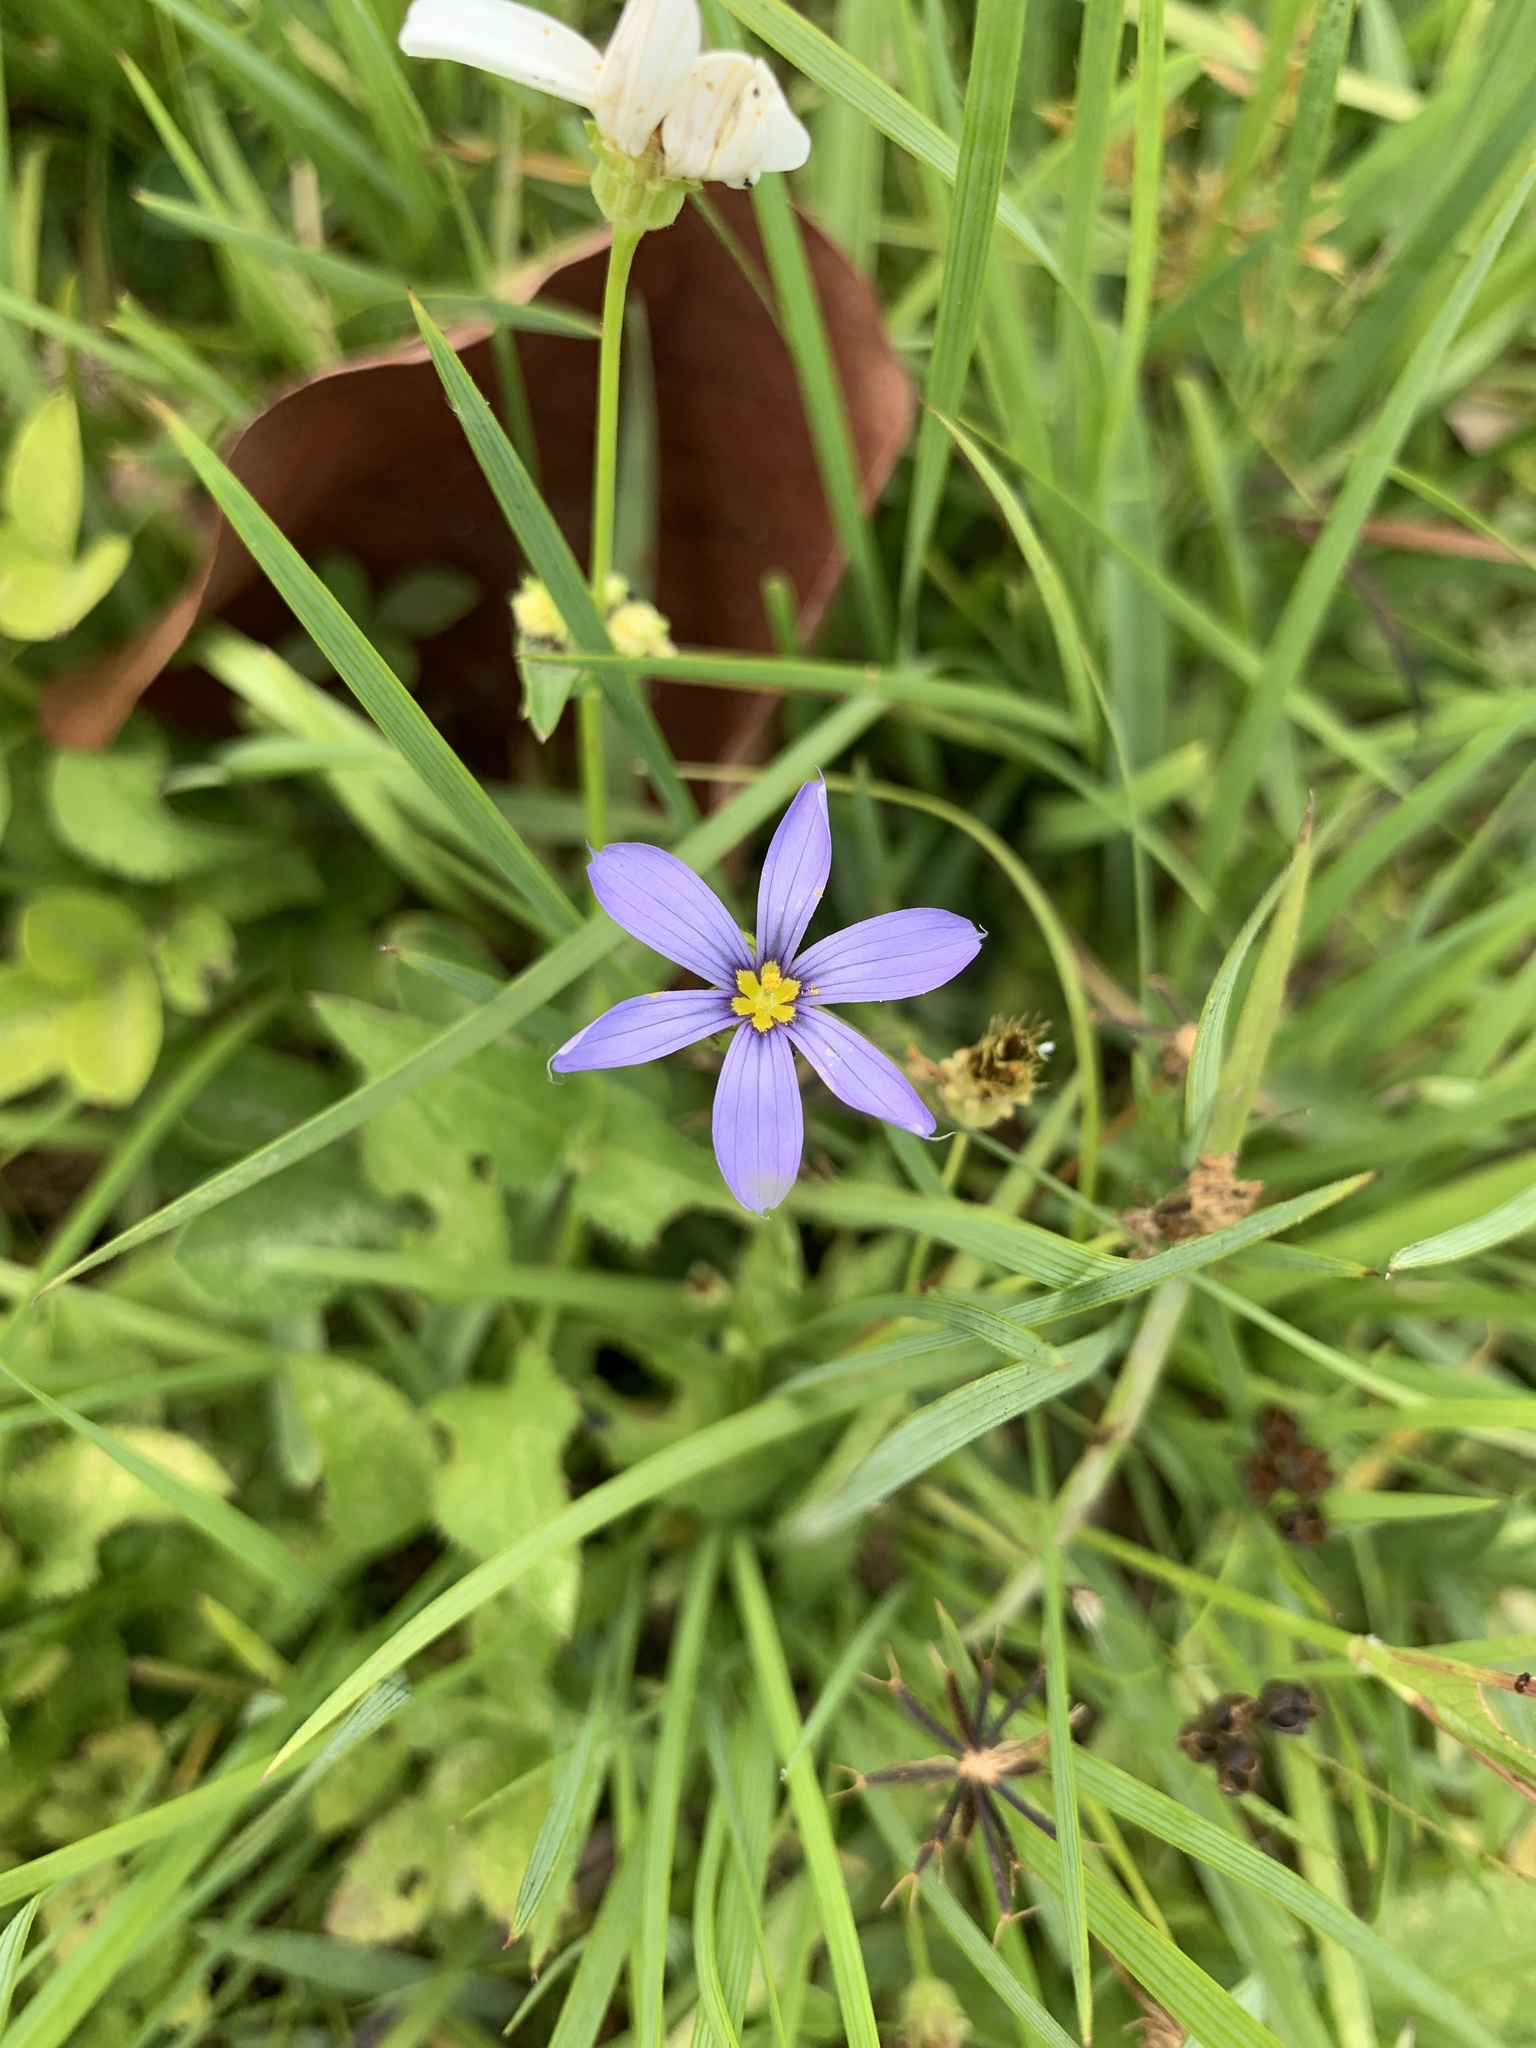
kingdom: Plantae
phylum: Tracheophyta
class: Liliopsida
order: Asparagales
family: Iridaceae
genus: Sisyrinchium
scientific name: Sisyrinchium angustifolium
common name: Narrow-leaf blue-eyed-grass
